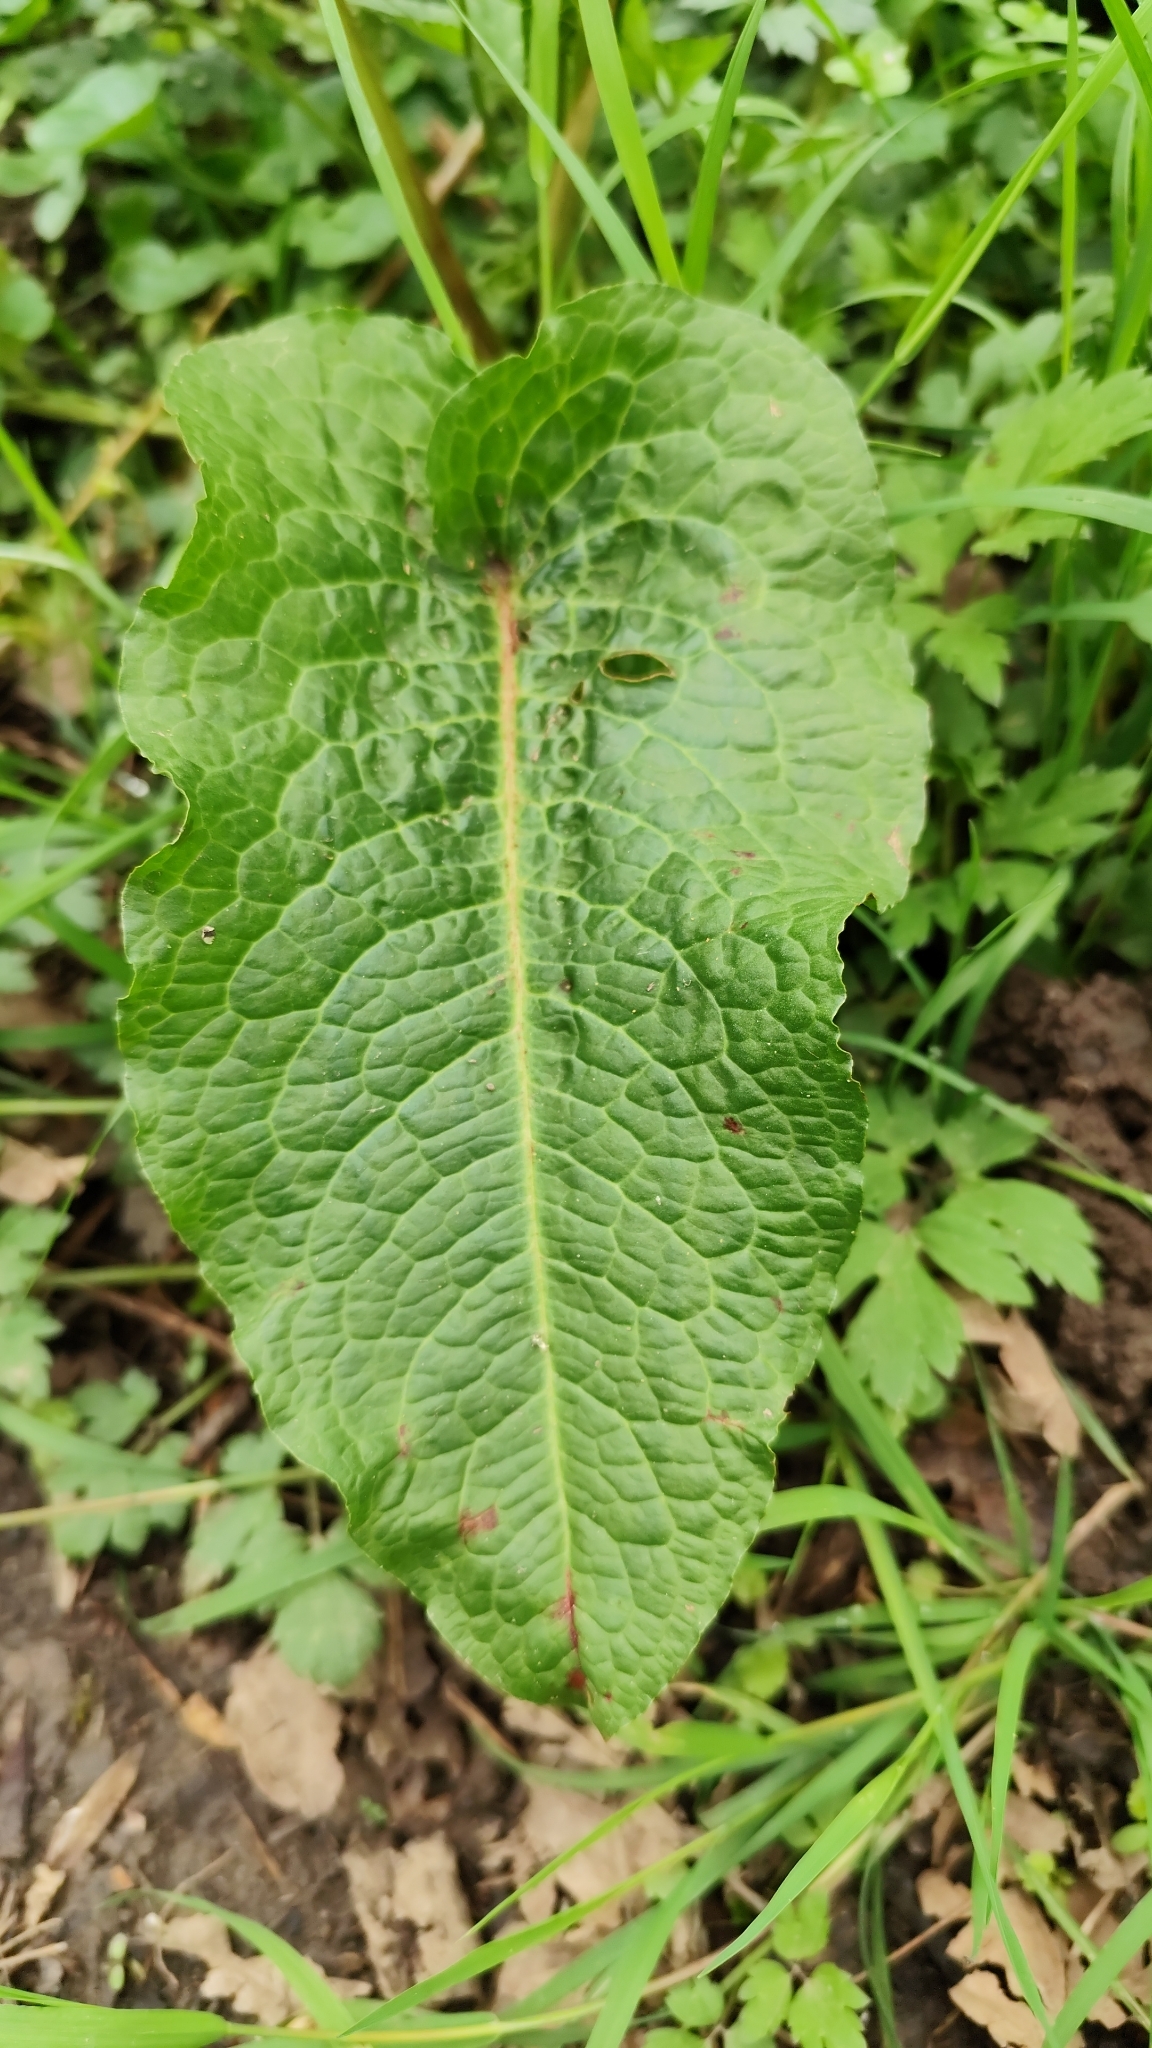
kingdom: Plantae
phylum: Tracheophyta
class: Magnoliopsida
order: Caryophyllales
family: Polygonaceae
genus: Rumex
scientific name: Rumex obtusifolius
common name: Bitter dock
